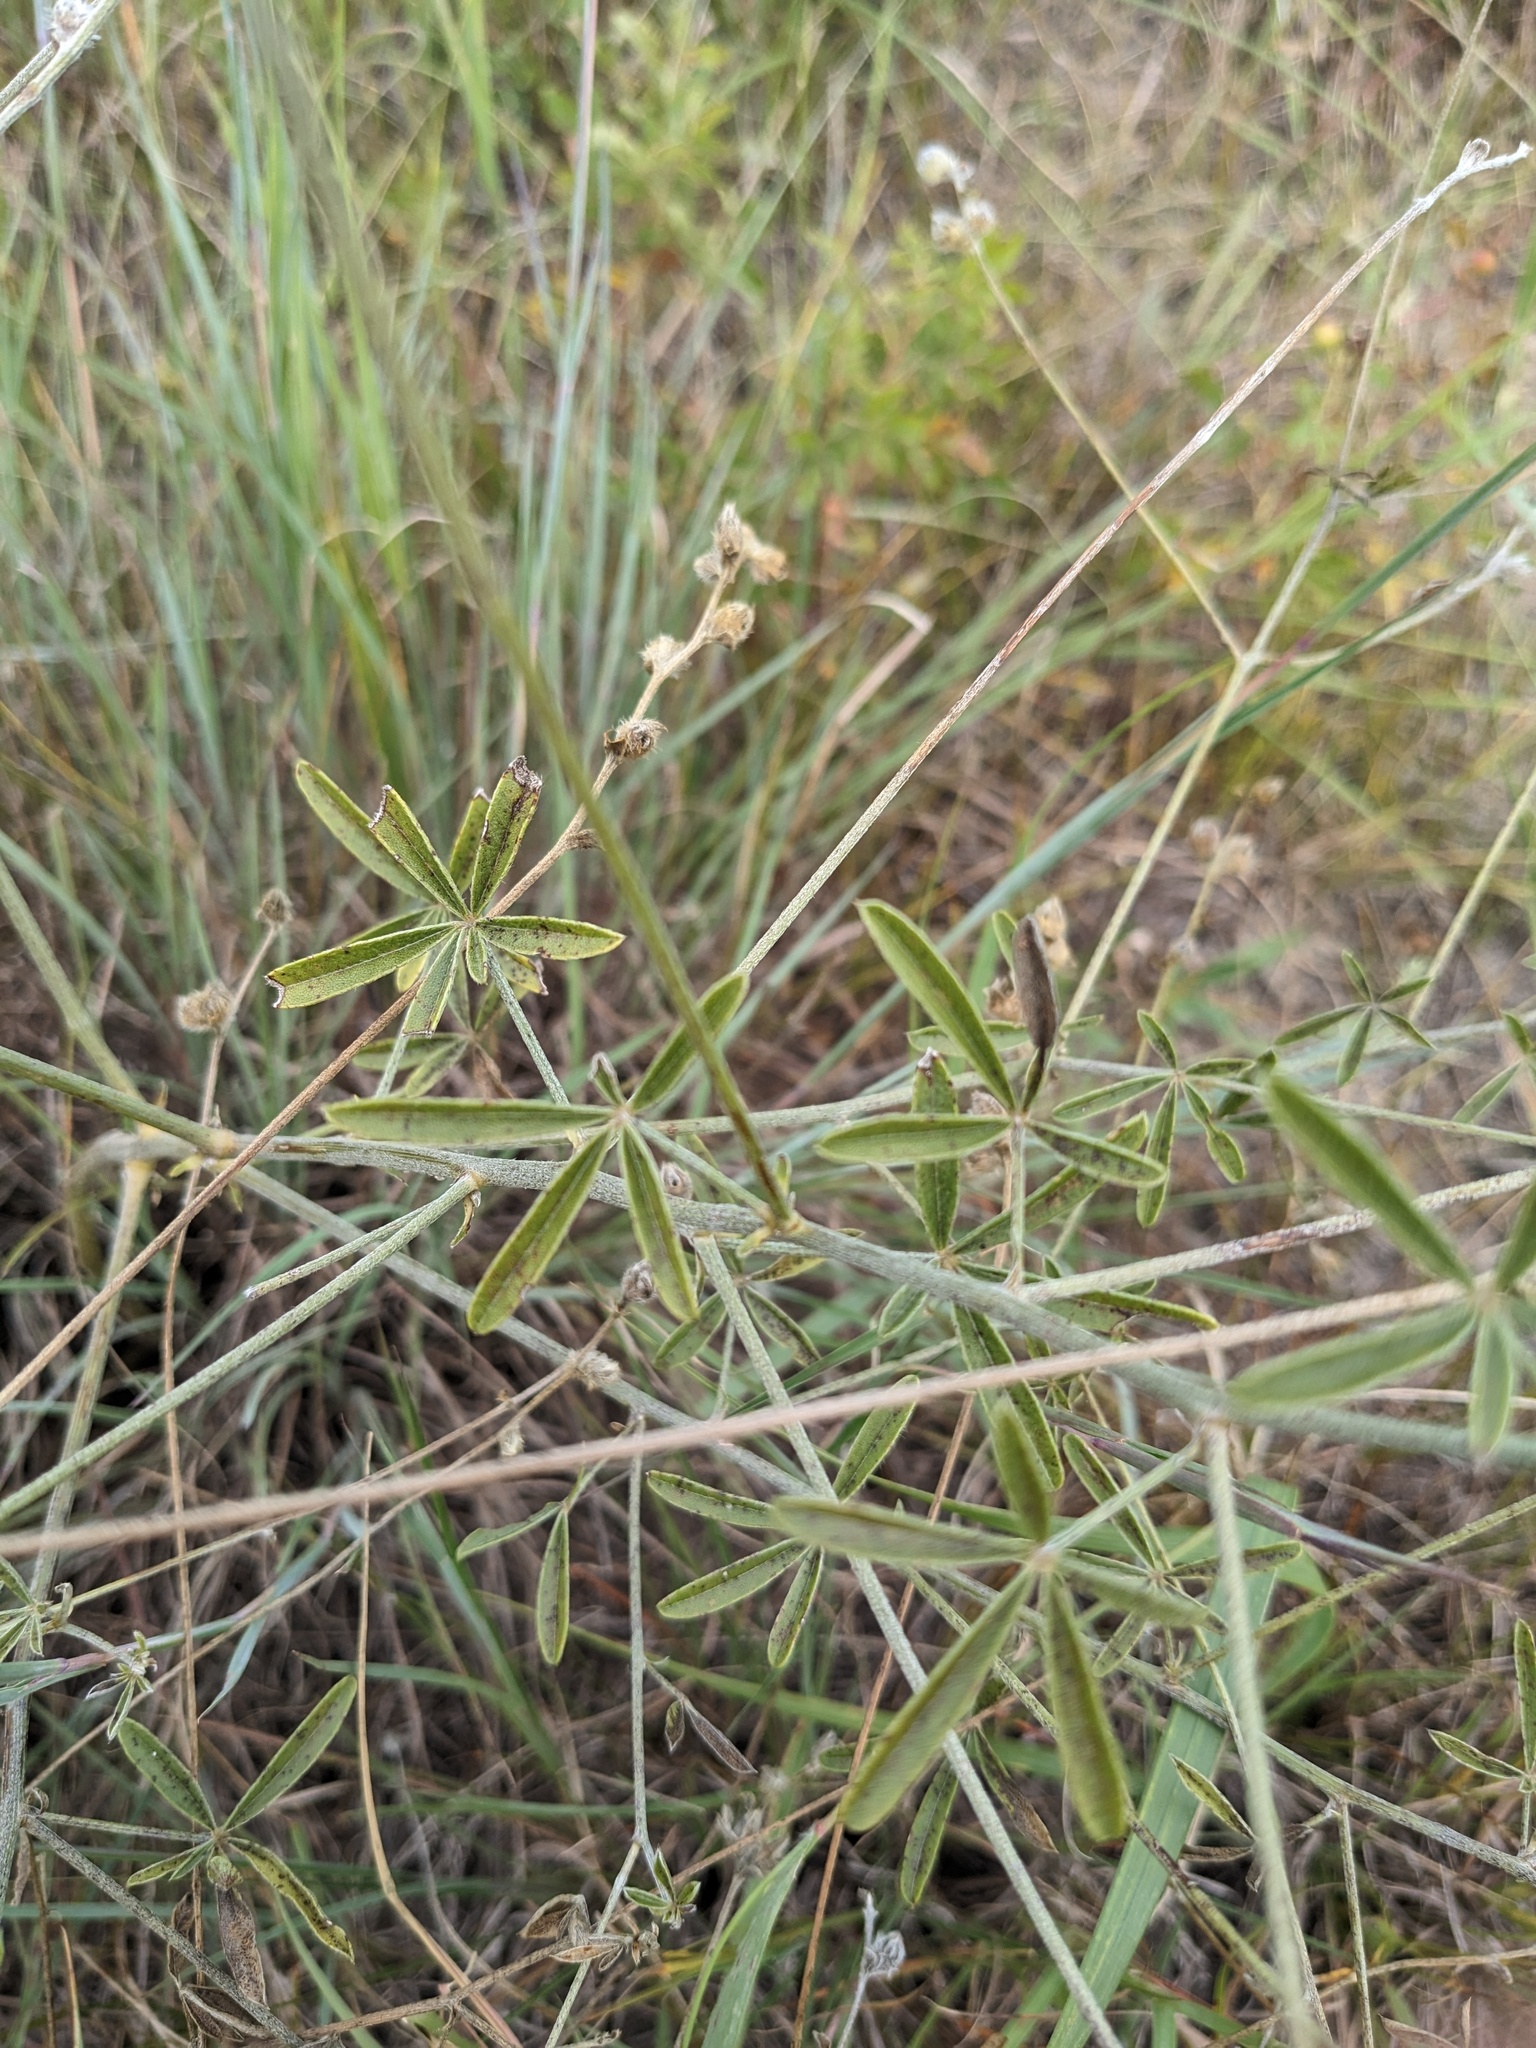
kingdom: Plantae
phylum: Tracheophyta
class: Magnoliopsida
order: Fabales
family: Fabaceae
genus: Pediomelum
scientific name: Pediomelum digitatum
